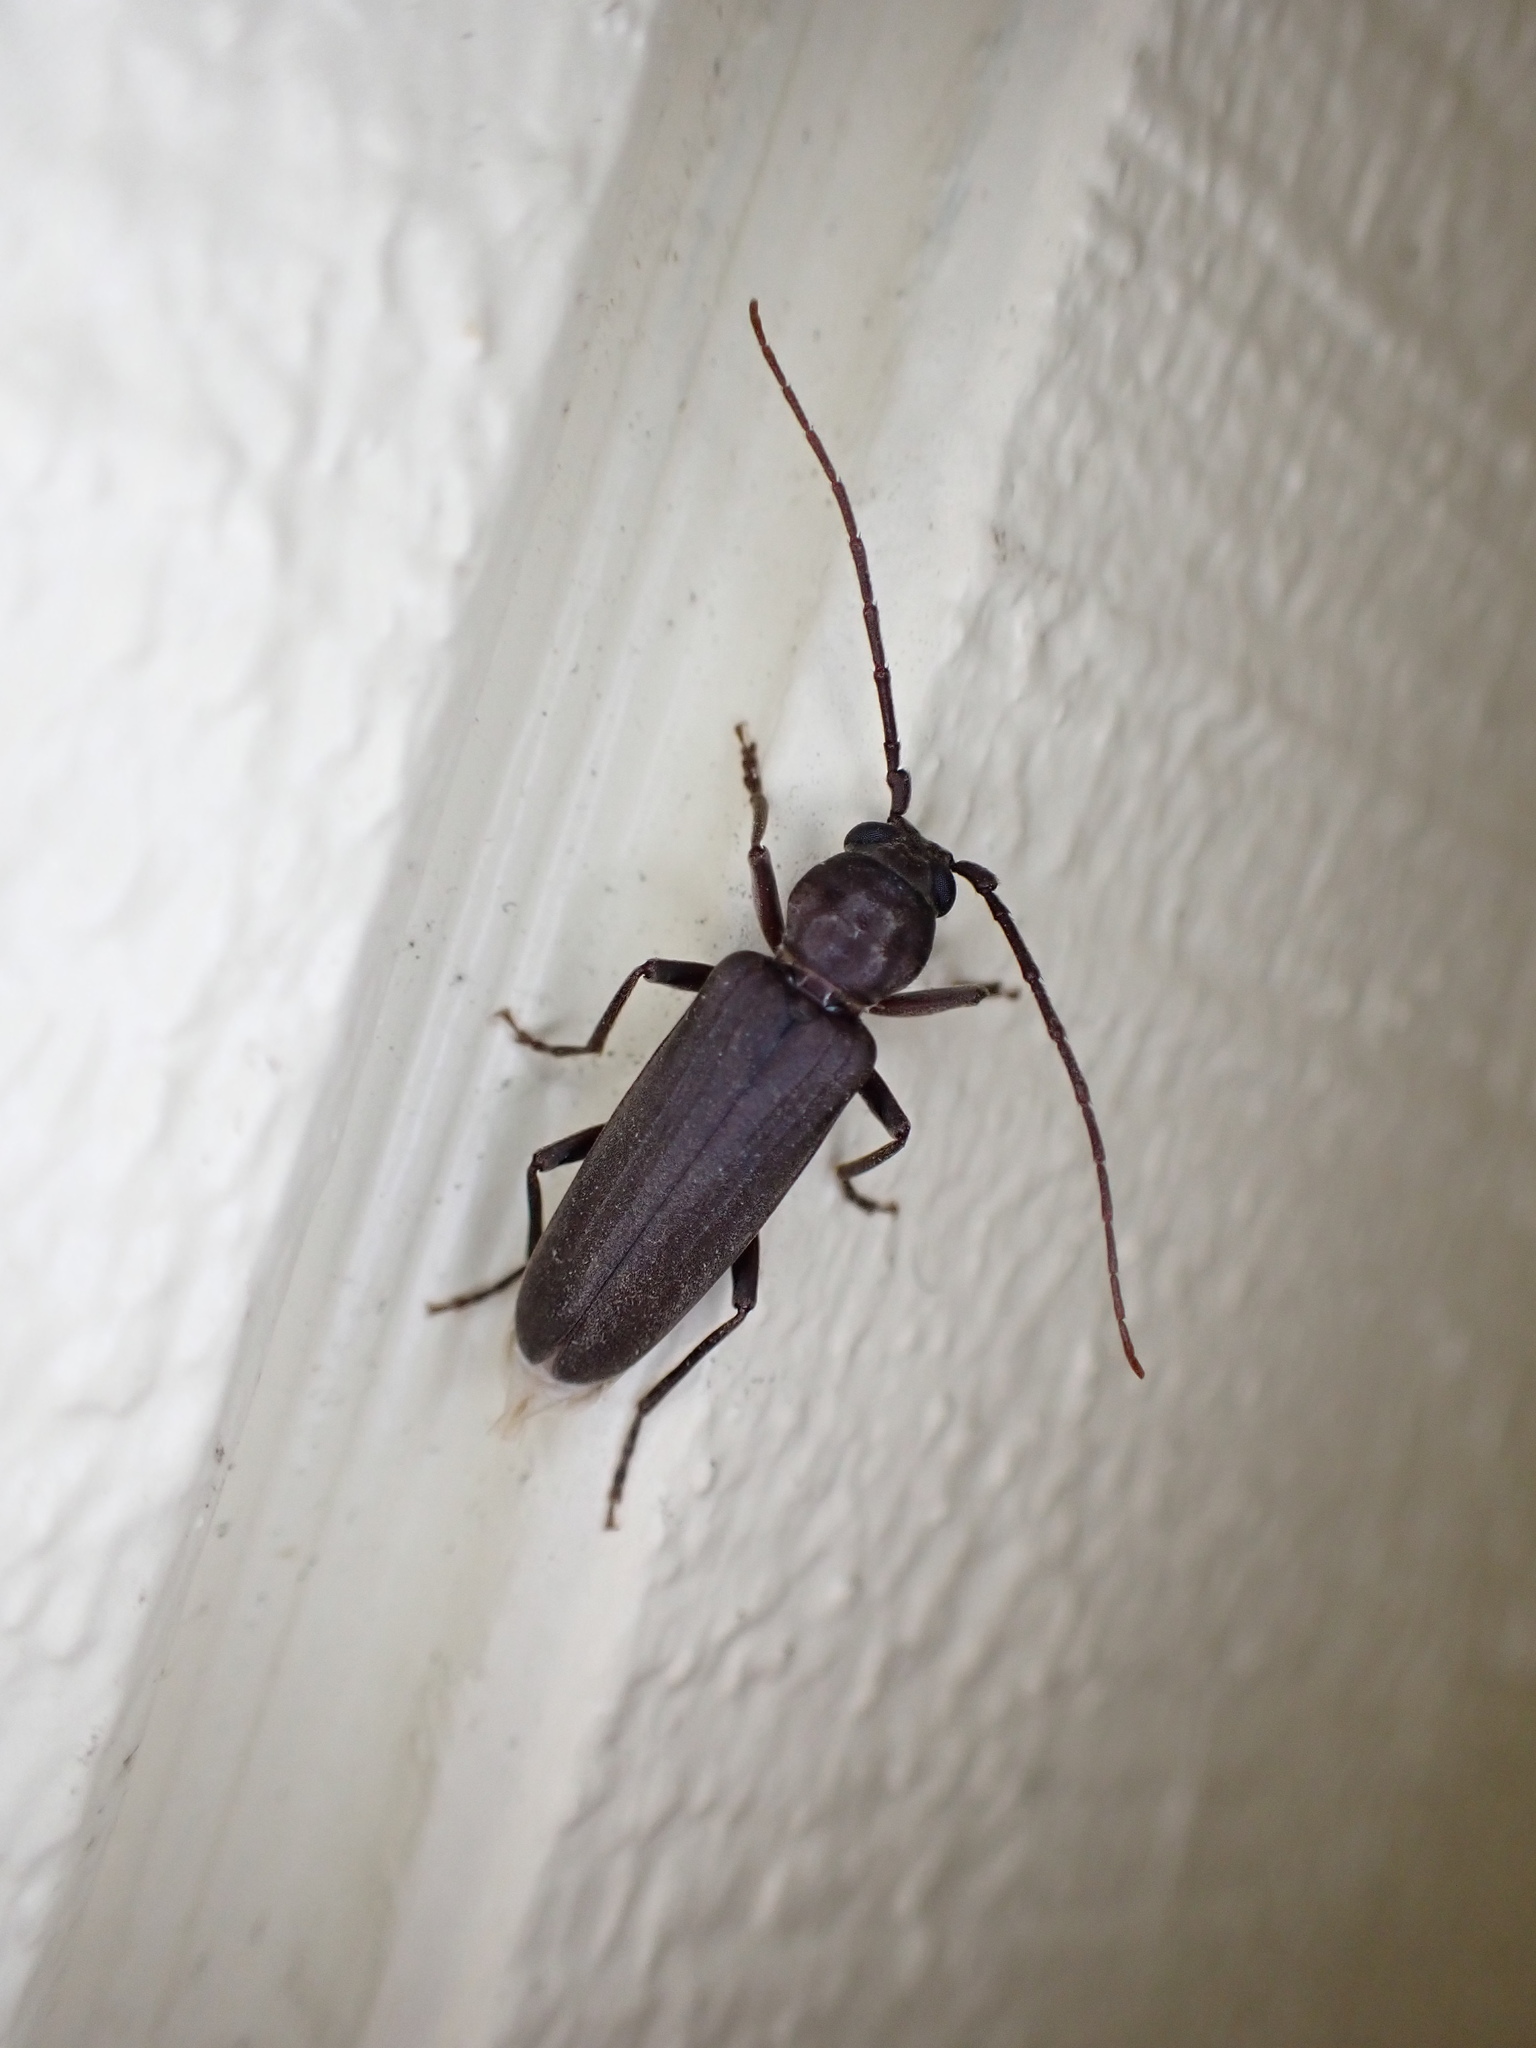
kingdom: Animalia
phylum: Arthropoda
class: Insecta
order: Coleoptera
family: Cerambycidae
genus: Arhopalus
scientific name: Arhopalus ferus
